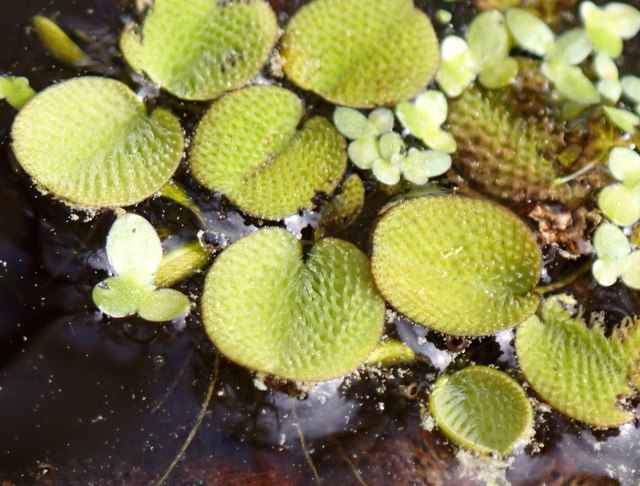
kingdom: Plantae
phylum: Tracheophyta
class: Polypodiopsida
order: Salviniales
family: Salviniaceae
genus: Salvinia
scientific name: Salvinia minima
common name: Water spangles
